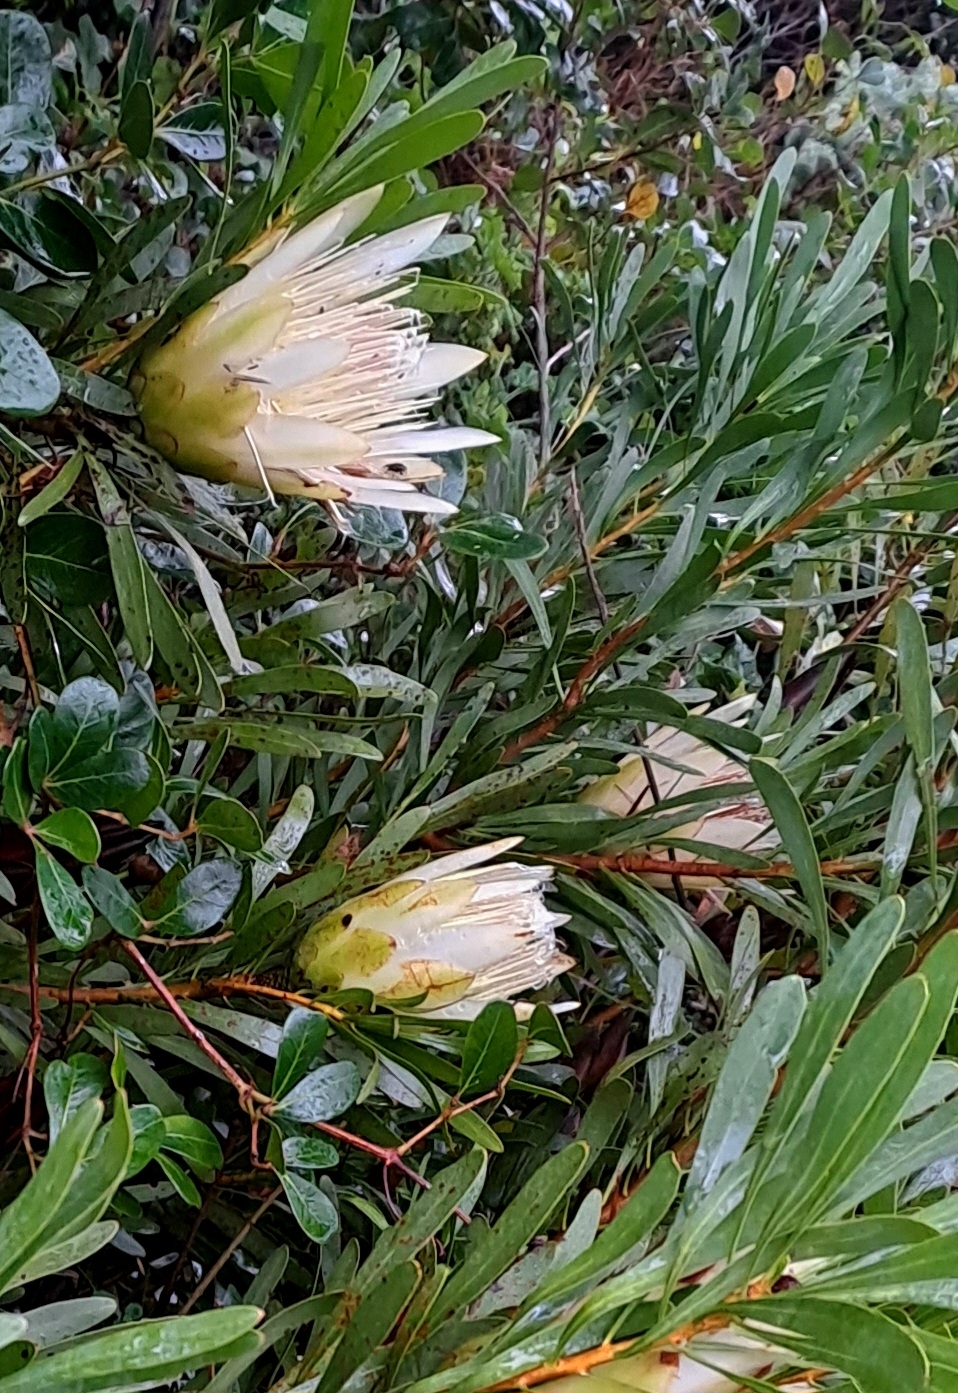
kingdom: Plantae
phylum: Tracheophyta
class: Magnoliopsida
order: Proteales
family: Proteaceae
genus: Protea
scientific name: Protea repens
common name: Sugarbush
